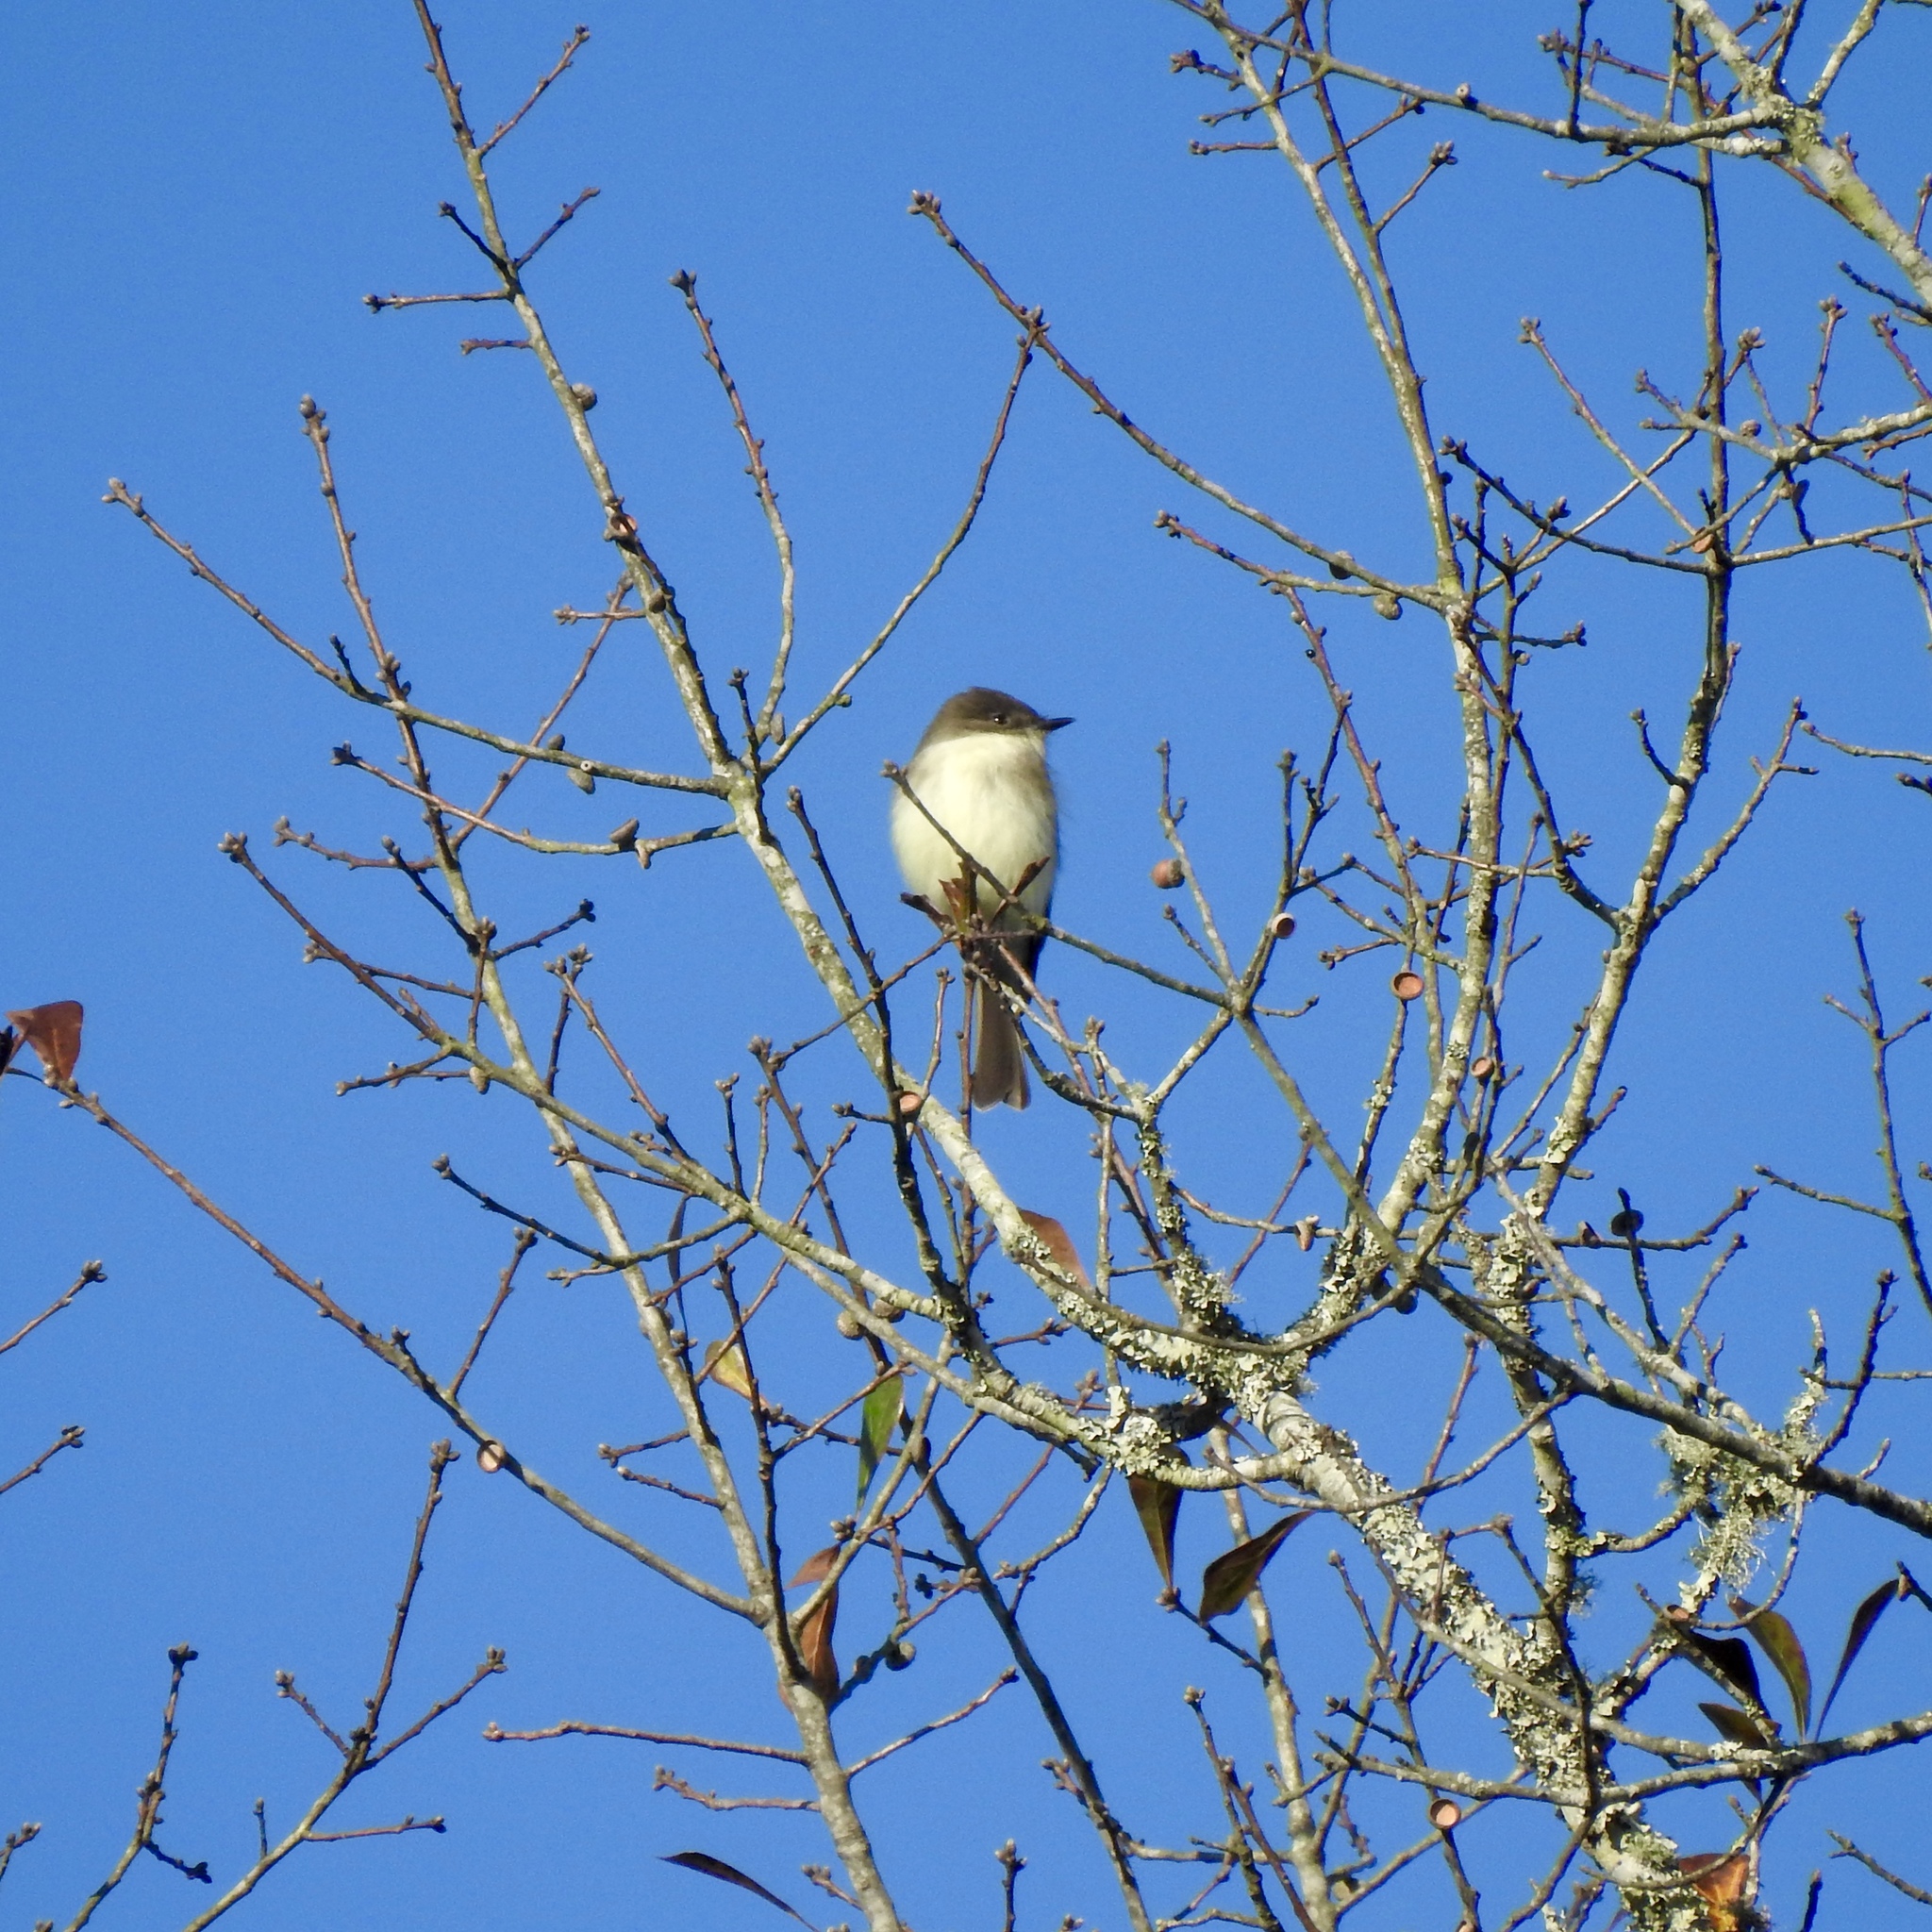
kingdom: Animalia
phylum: Chordata
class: Aves
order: Passeriformes
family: Tyrannidae
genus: Sayornis
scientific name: Sayornis phoebe
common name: Eastern phoebe
